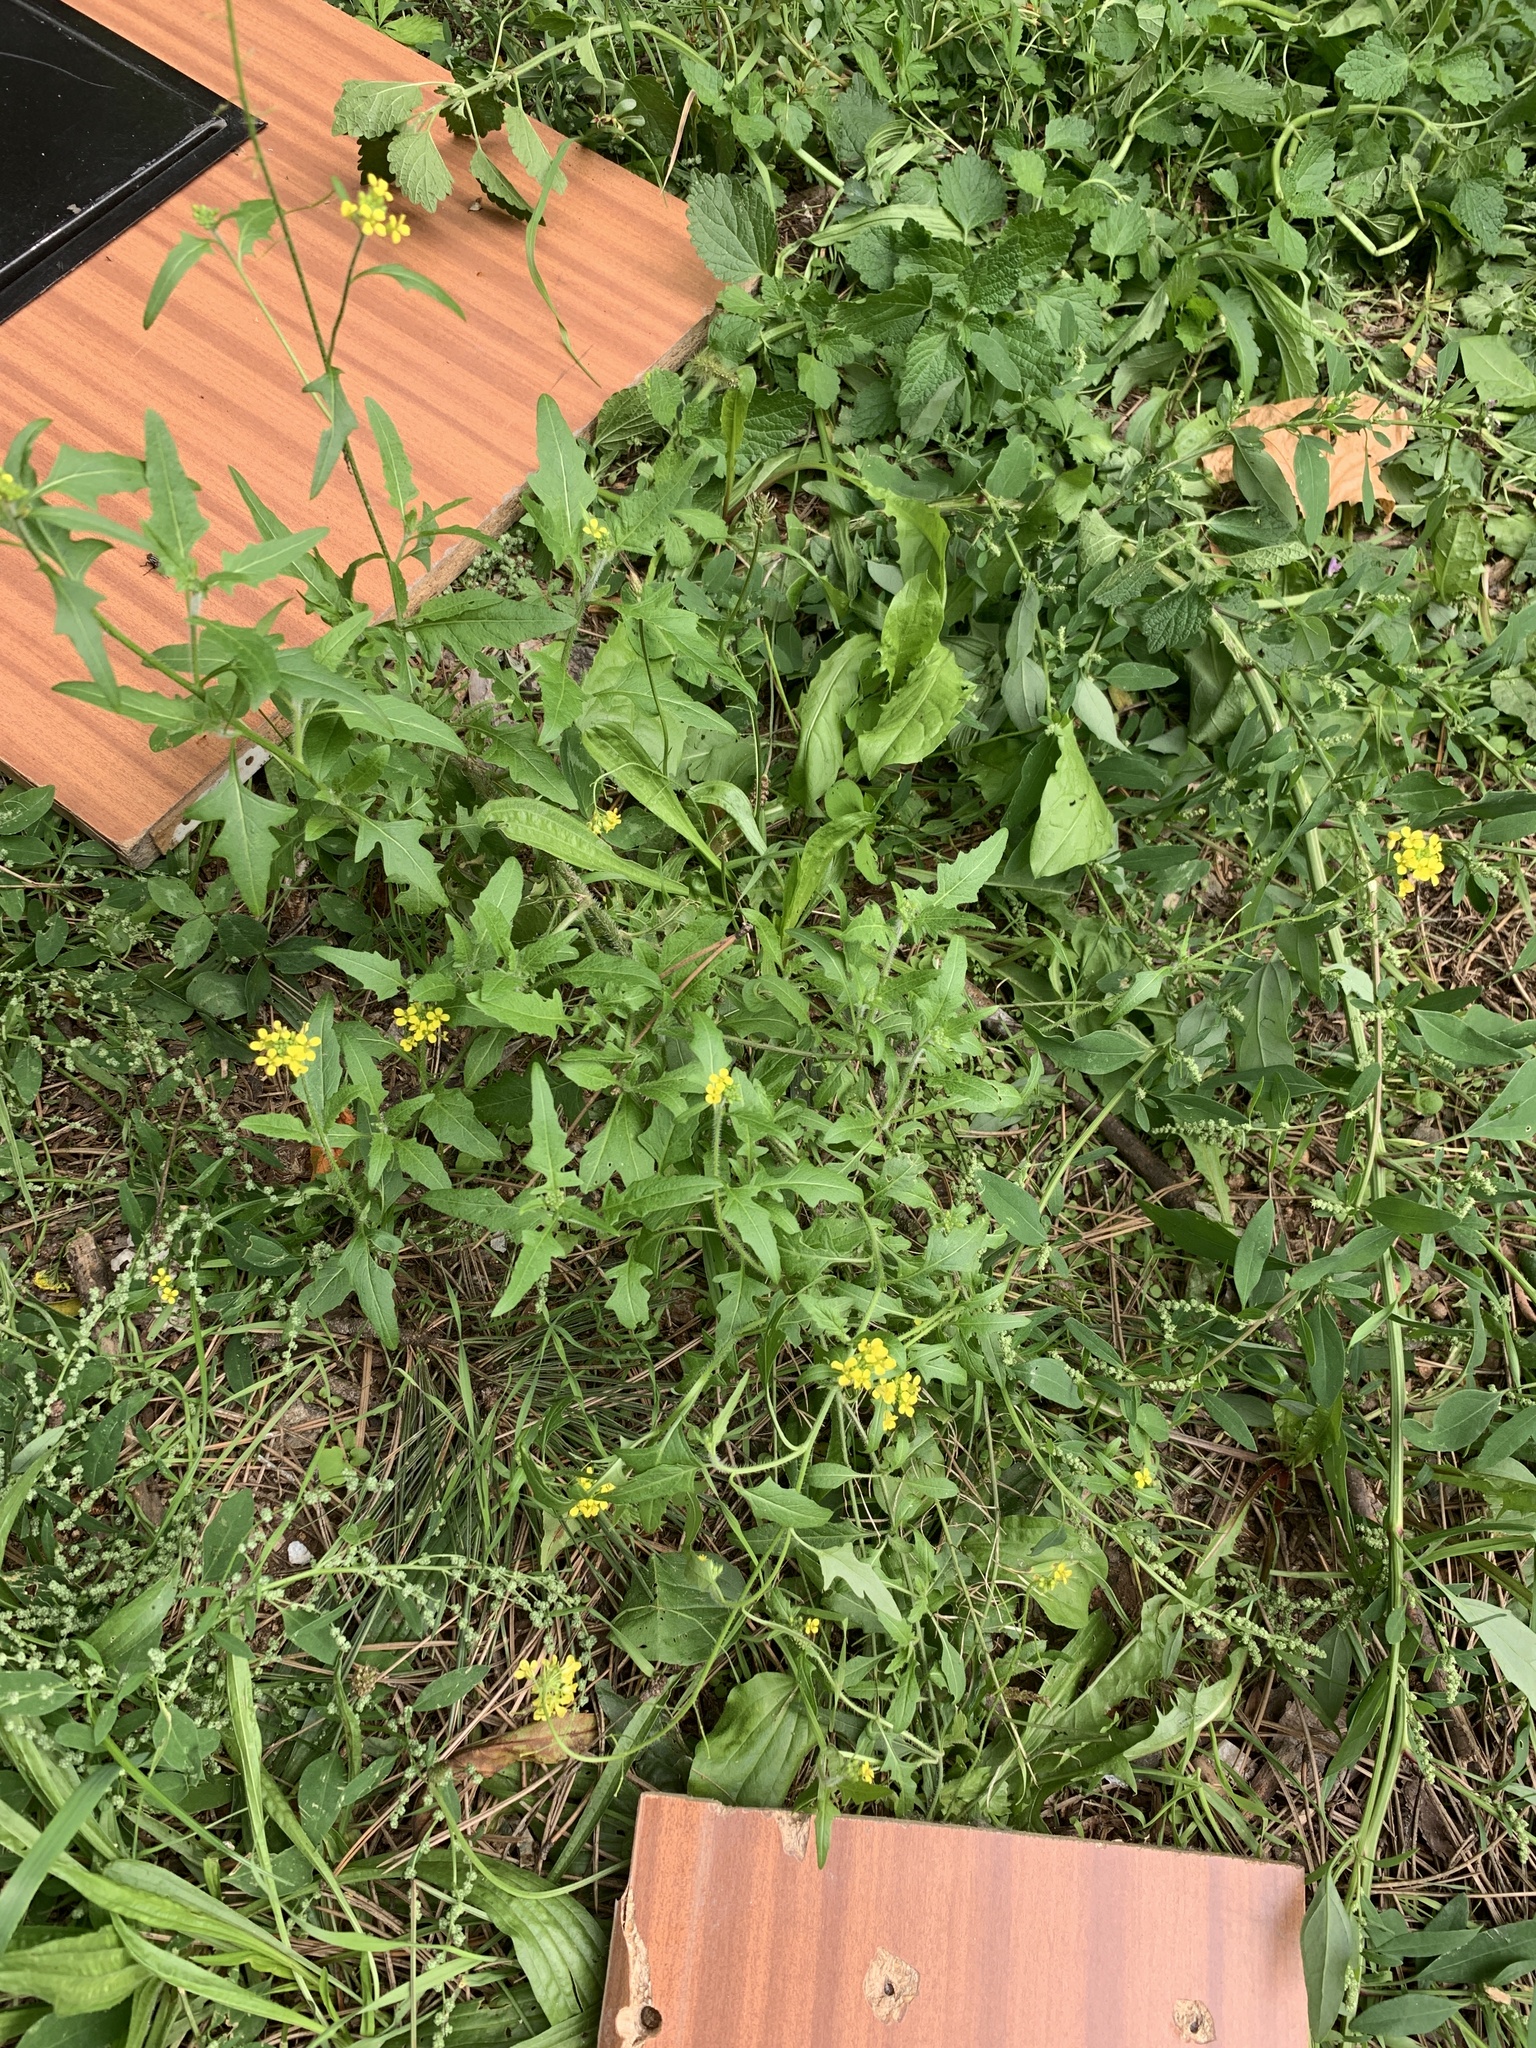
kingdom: Plantae
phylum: Tracheophyta
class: Magnoliopsida
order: Brassicales
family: Brassicaceae
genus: Sisymbrium
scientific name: Sisymbrium loeselii
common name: False london-rocket
